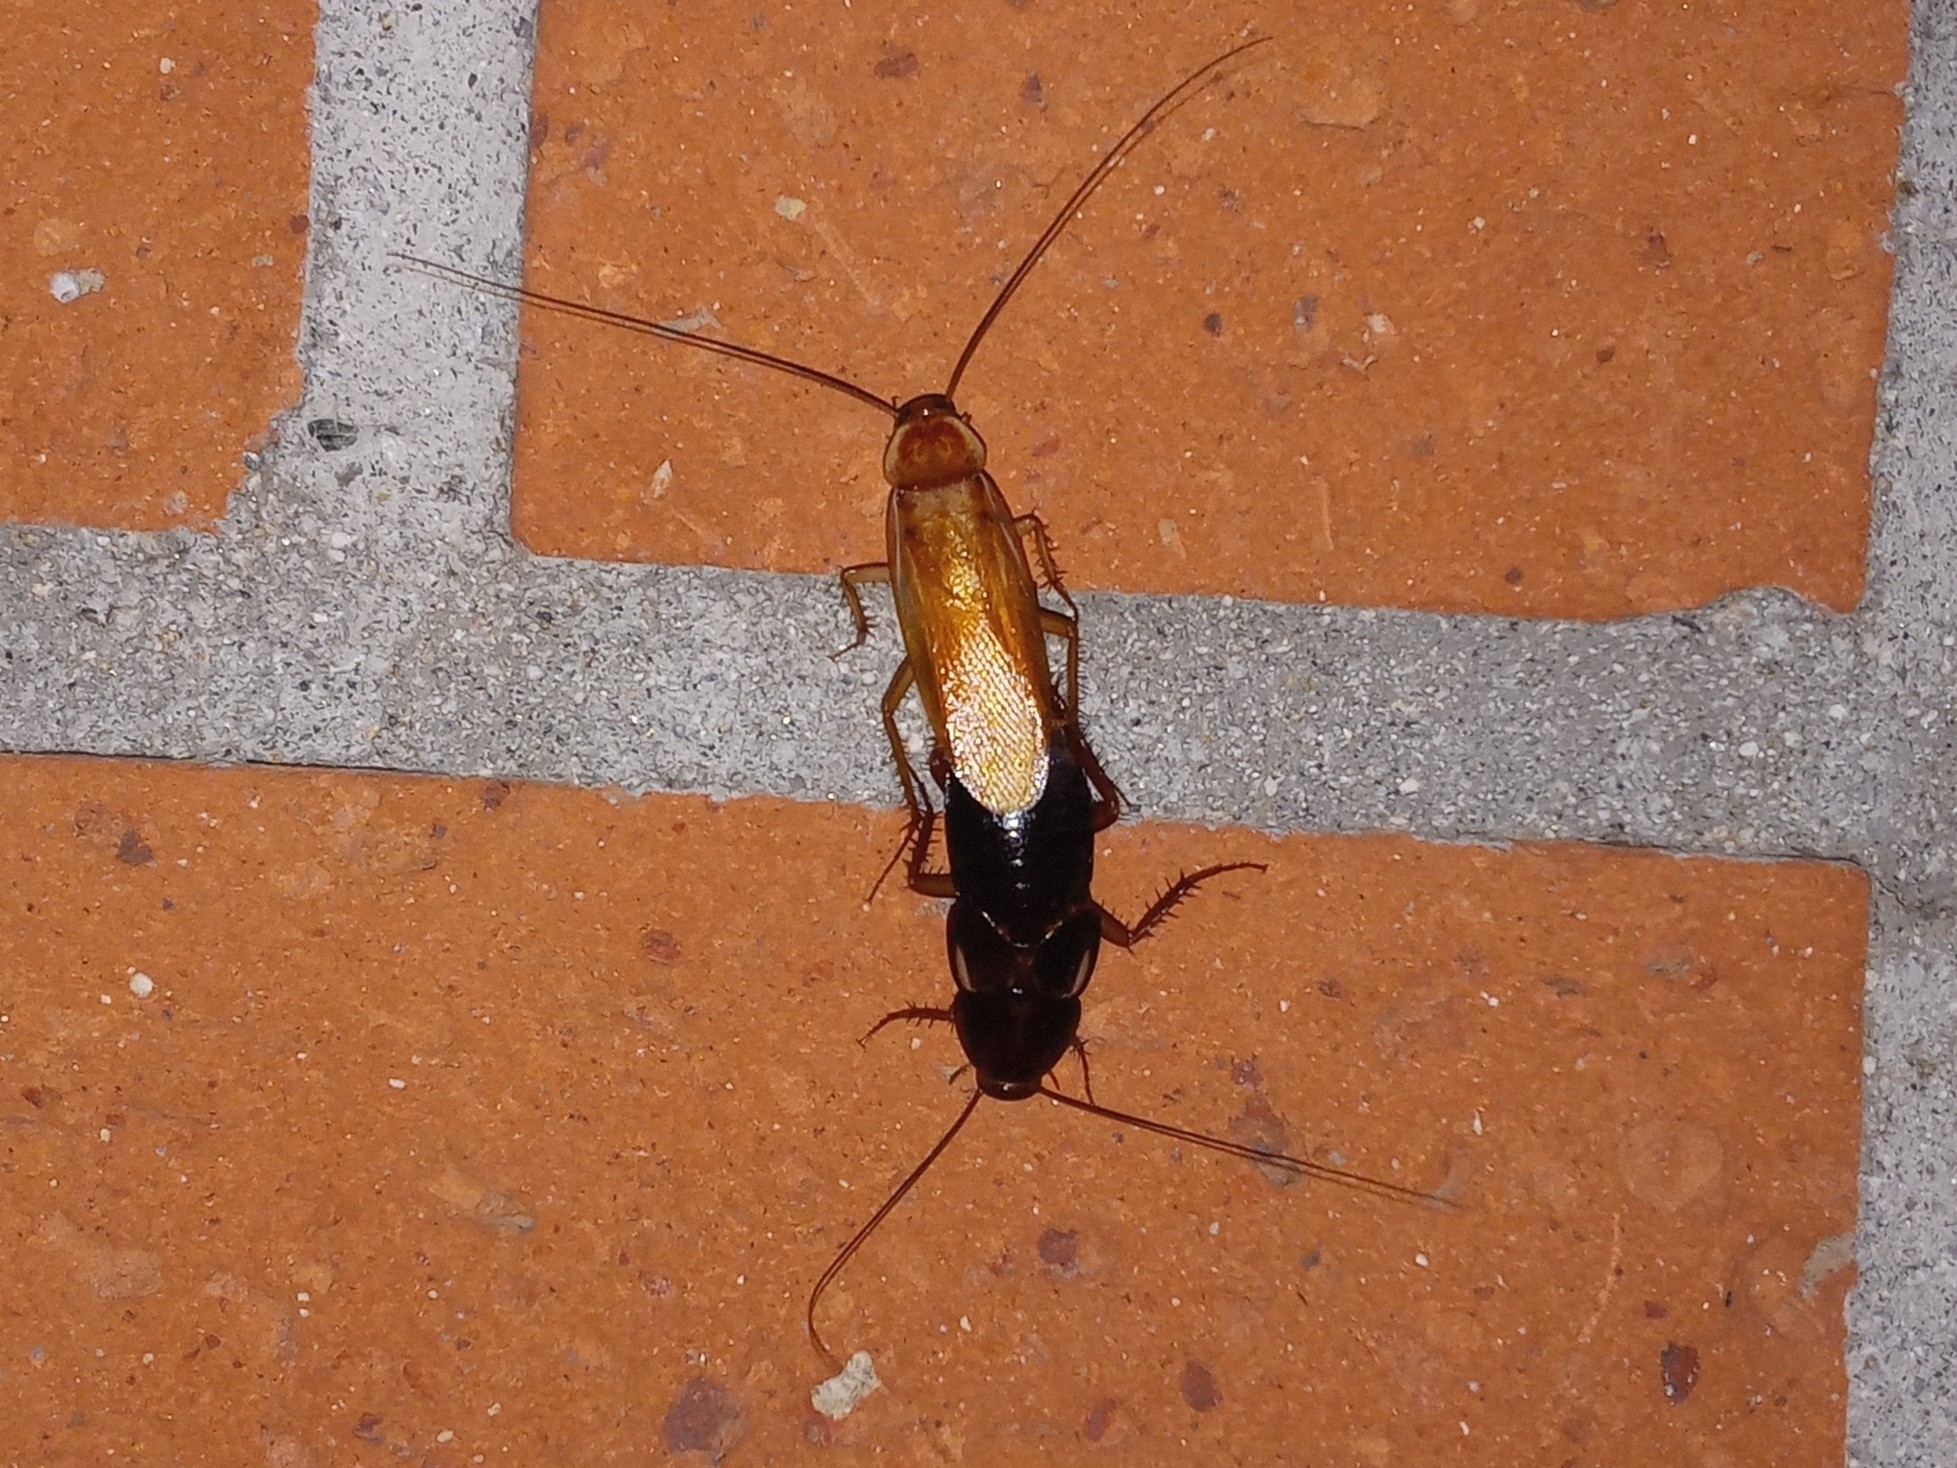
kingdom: Animalia
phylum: Arthropoda
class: Insecta
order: Blattodea
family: Blattidae
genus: Periplaneta
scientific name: Periplaneta lateralis
